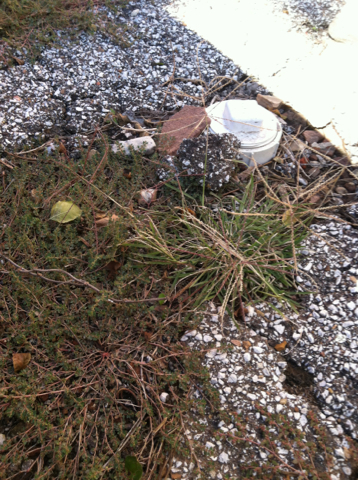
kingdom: Plantae
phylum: Tracheophyta
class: Liliopsida
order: Poales
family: Poaceae
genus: Chloris
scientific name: Chloris verticillata
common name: Tumble windmill grass
